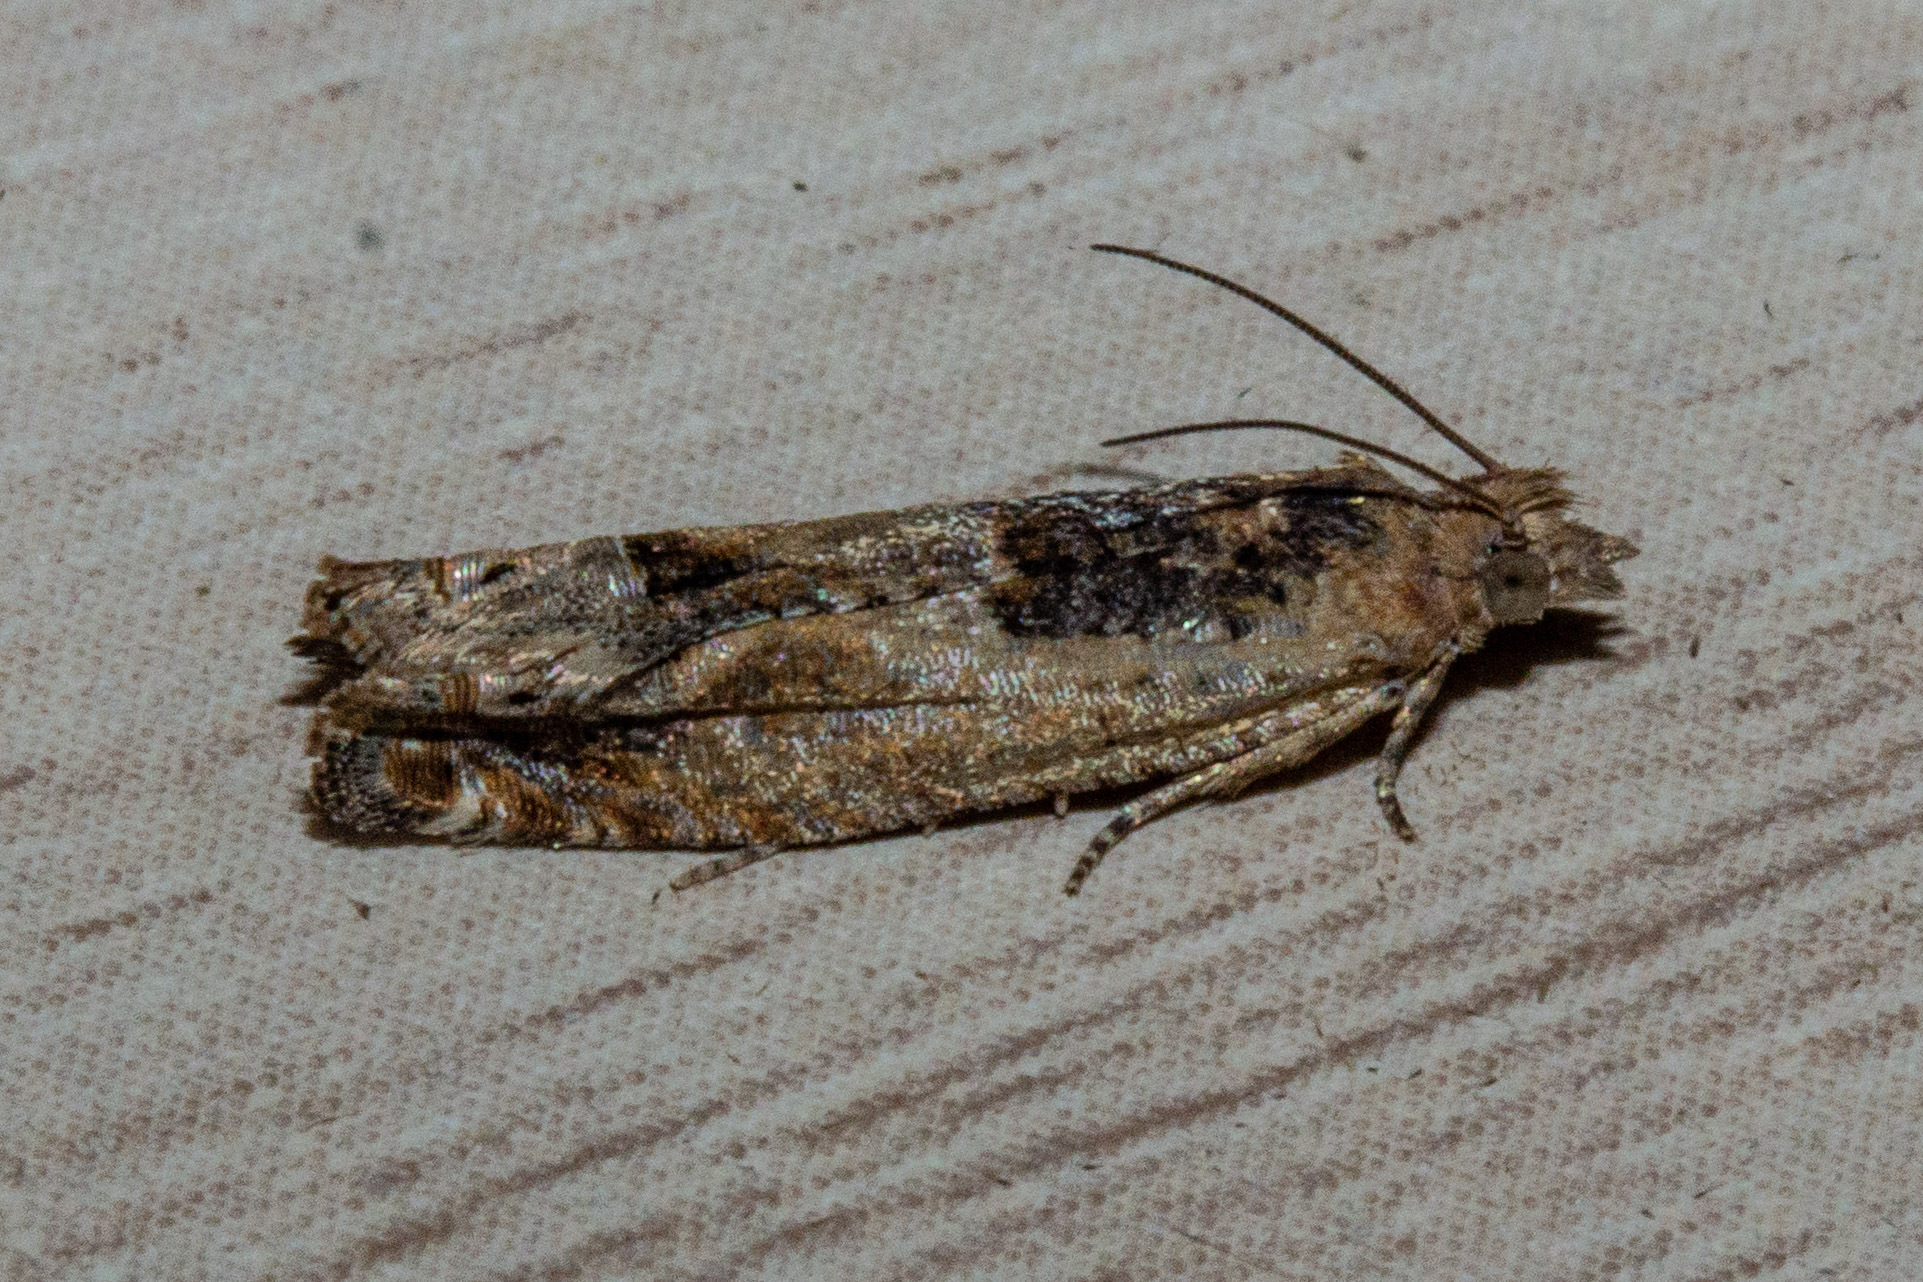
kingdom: Animalia
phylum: Arthropoda
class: Insecta
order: Lepidoptera
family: Tortricidae
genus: Crocidosema
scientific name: Crocidosema plebejana
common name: Southern bell
